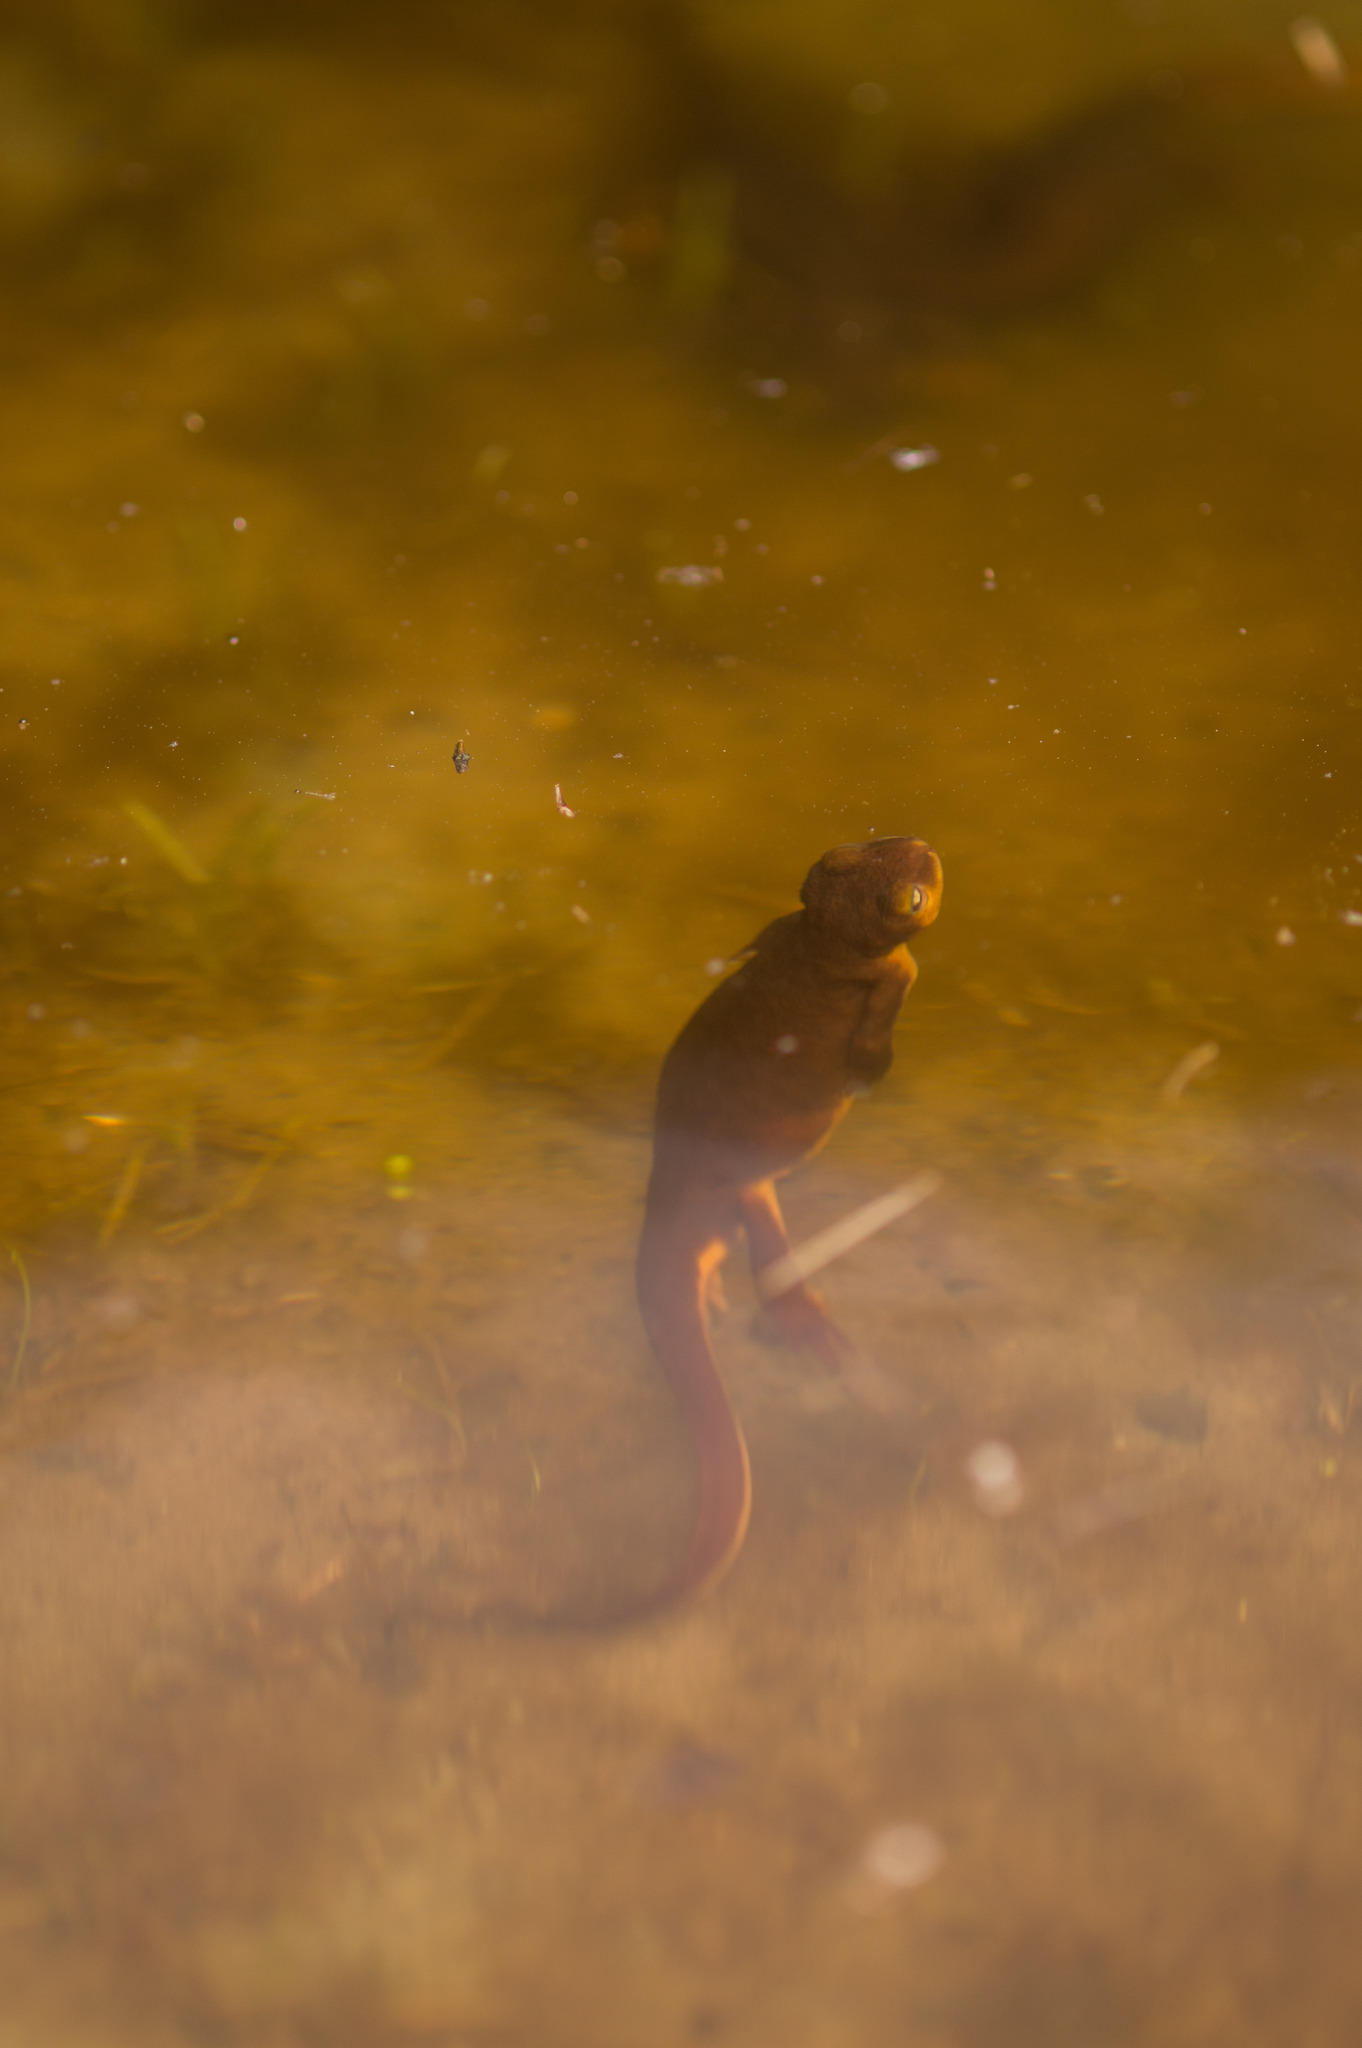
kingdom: Animalia
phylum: Chordata
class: Amphibia
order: Caudata
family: Salamandridae
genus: Taricha
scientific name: Taricha torosa
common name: California newt
